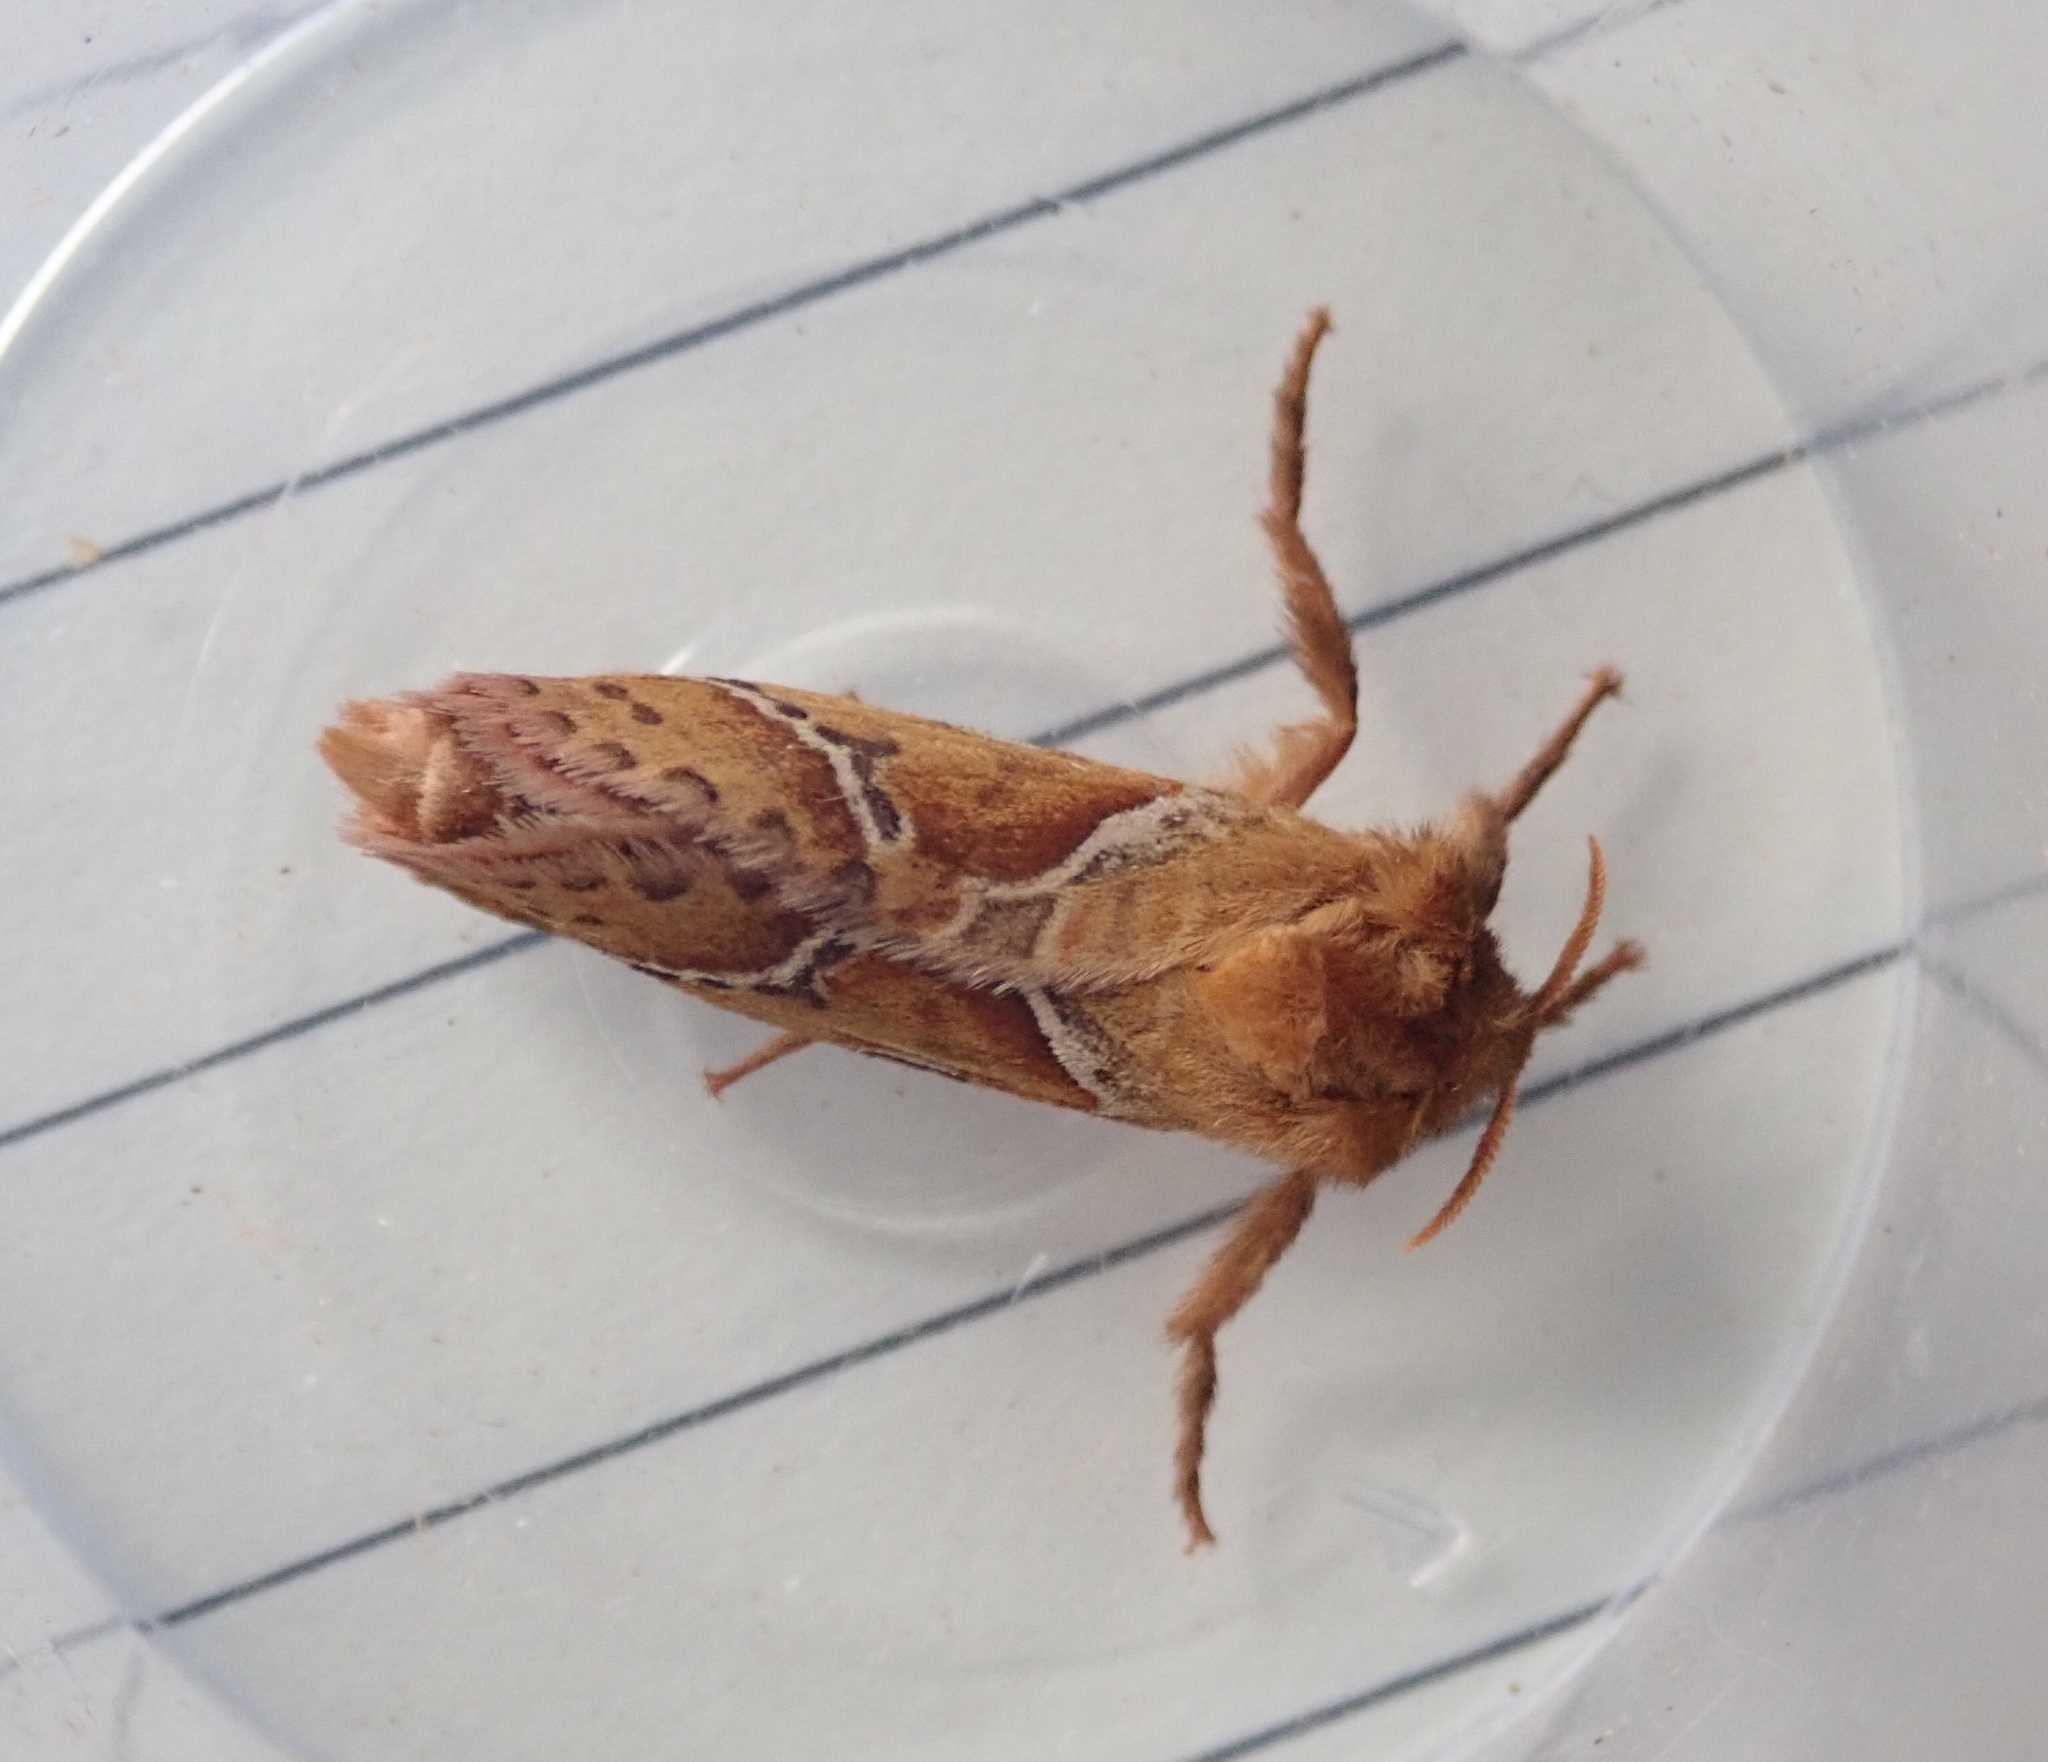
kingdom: Animalia
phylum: Arthropoda
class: Insecta
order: Lepidoptera
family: Hepialidae
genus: Triodia
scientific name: Triodia sylvina
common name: Orange swift
